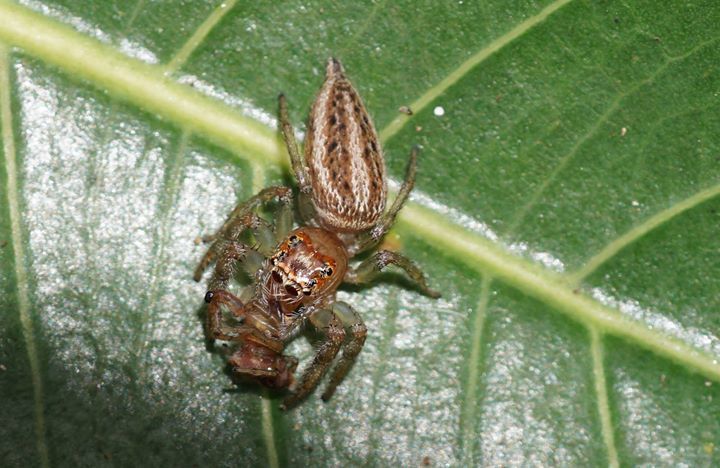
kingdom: Animalia
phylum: Arthropoda
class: Arachnida
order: Araneae
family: Salticidae
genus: Colonus
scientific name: Colonus sylvanus
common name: Jumping spiders
